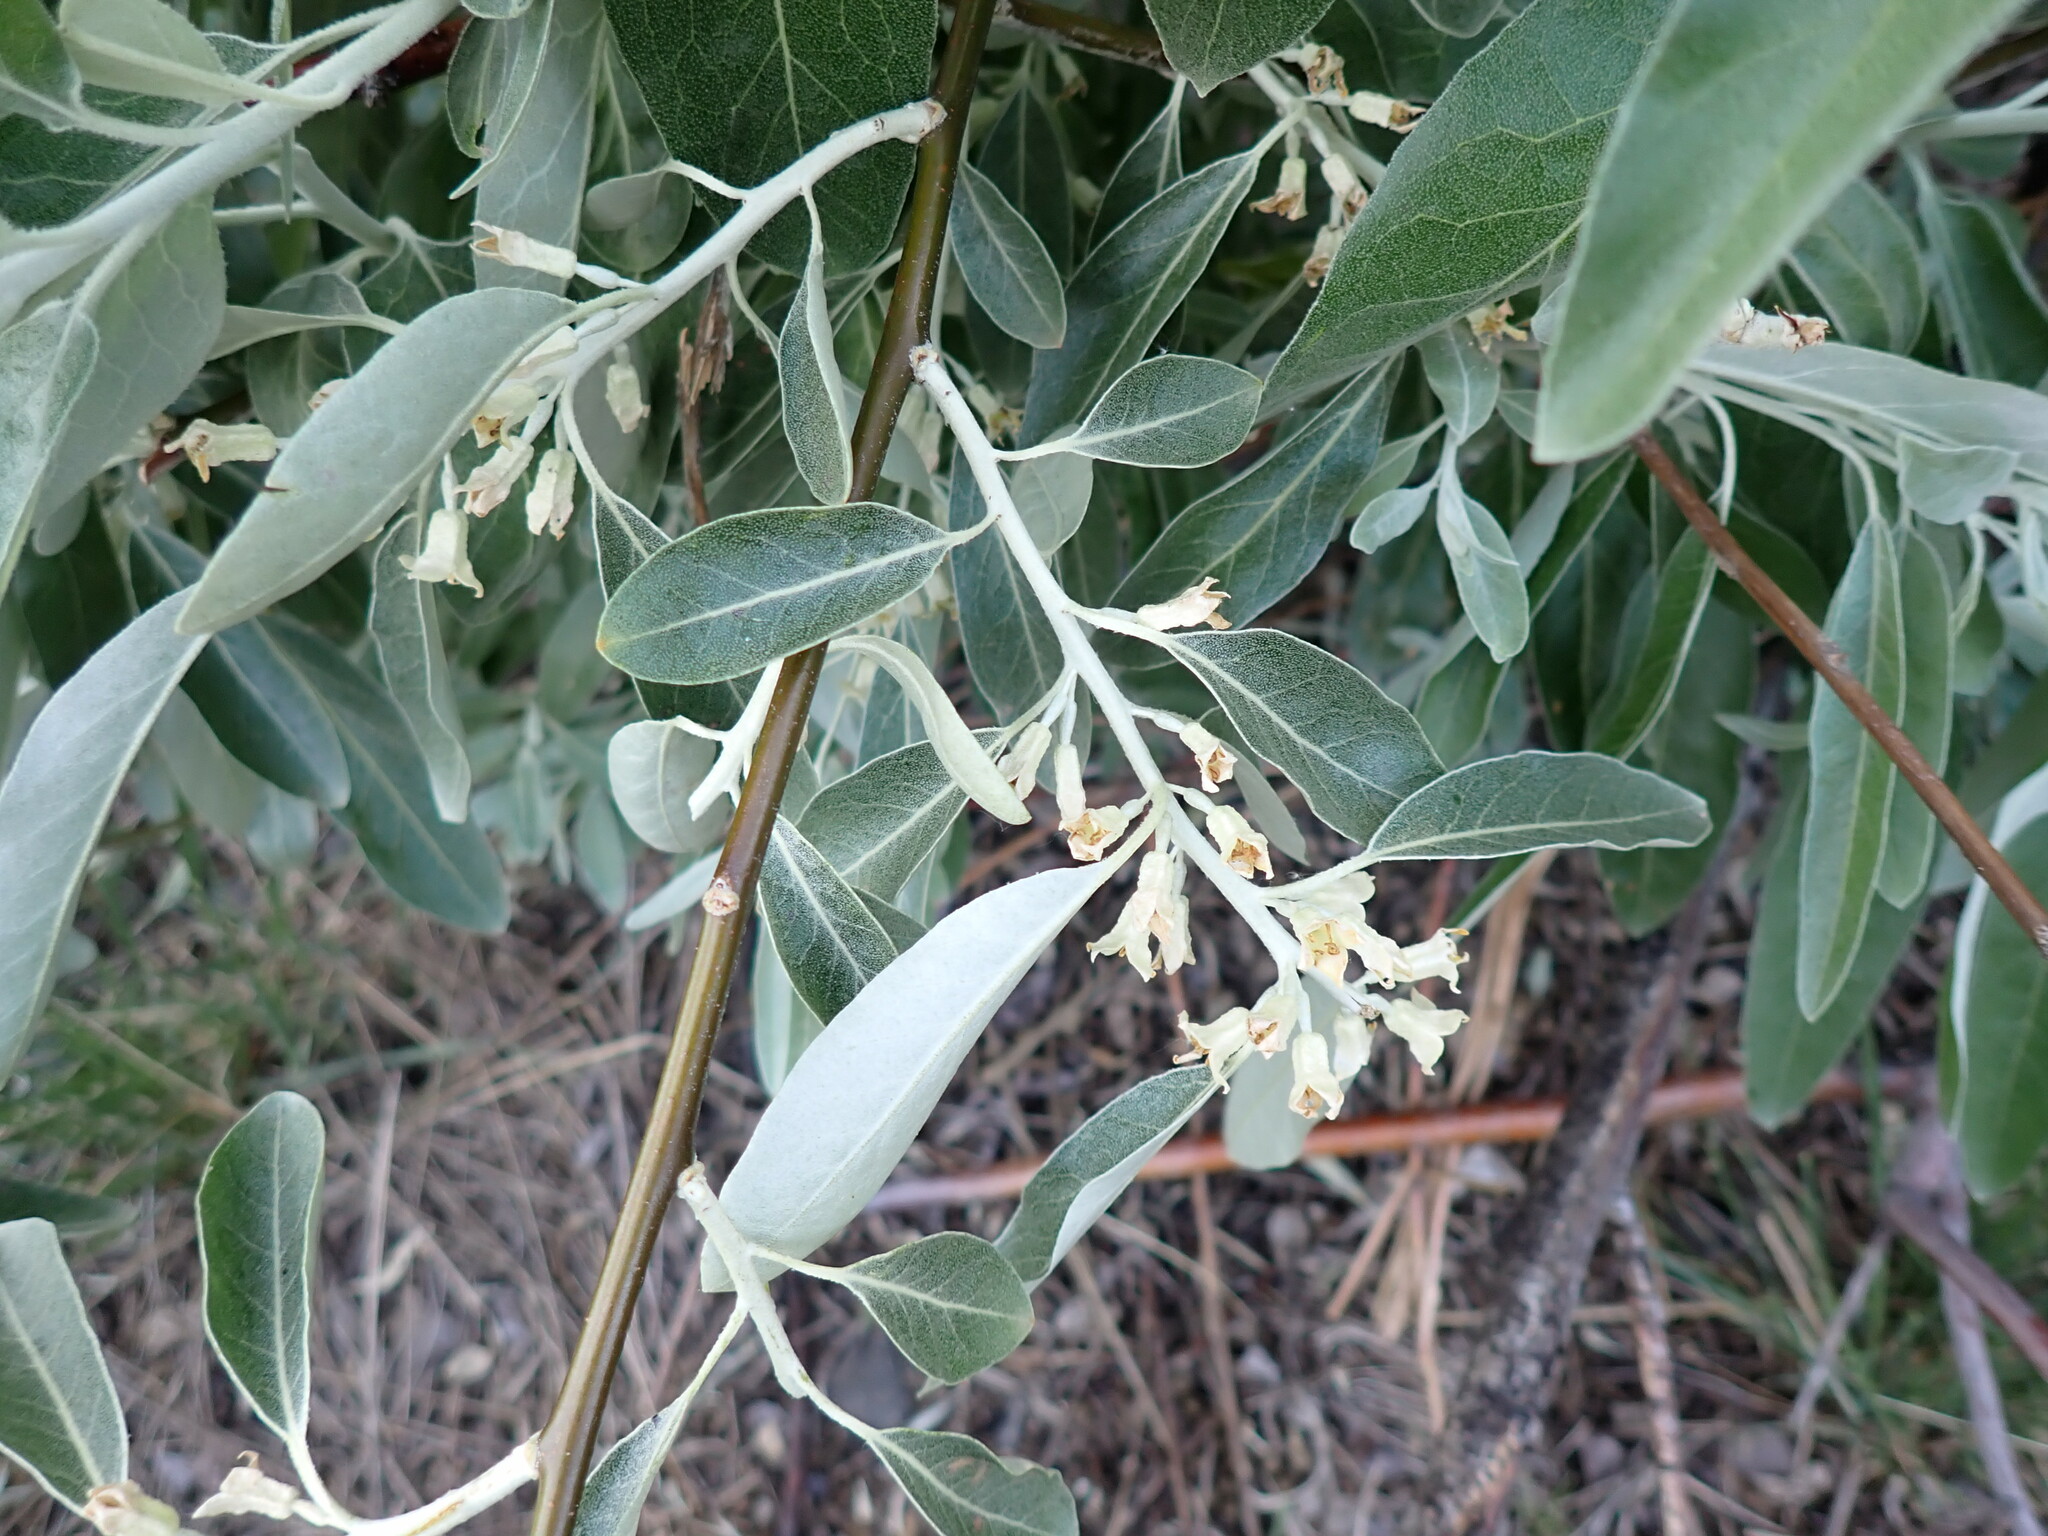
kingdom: Plantae
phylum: Tracheophyta
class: Magnoliopsida
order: Rosales
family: Elaeagnaceae
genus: Elaeagnus
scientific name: Elaeagnus angustifolia
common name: Russian olive
